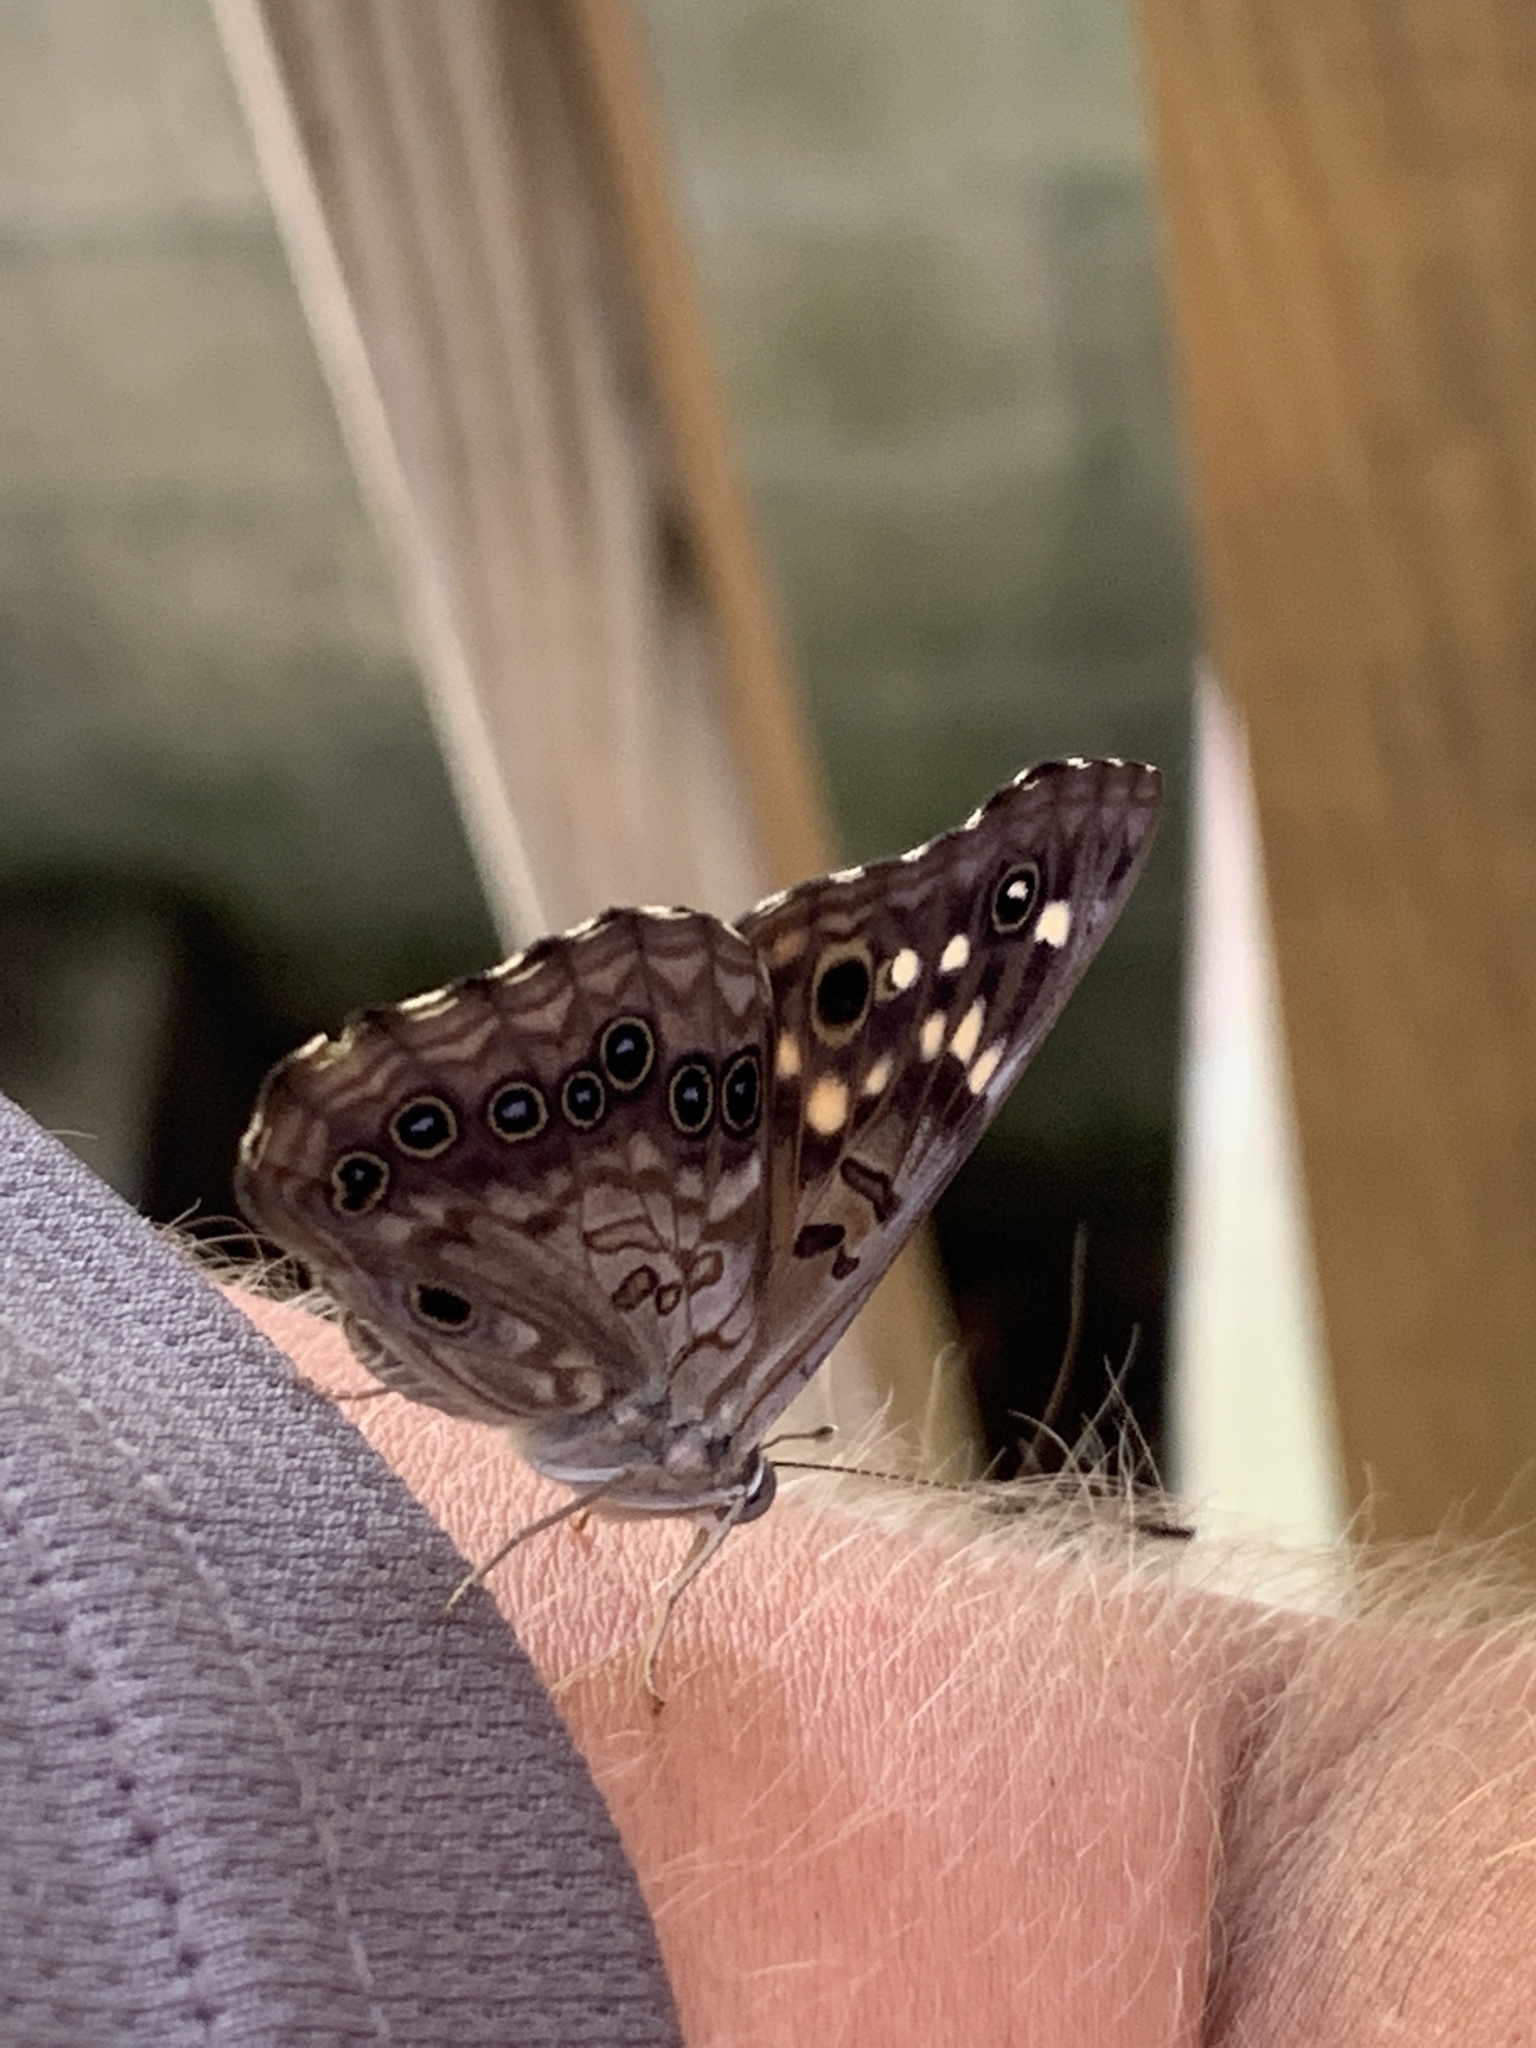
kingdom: Animalia
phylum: Arthropoda
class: Insecta
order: Lepidoptera
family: Nymphalidae
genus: Asterocampa
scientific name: Asterocampa celtis
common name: Hackberry emperor
